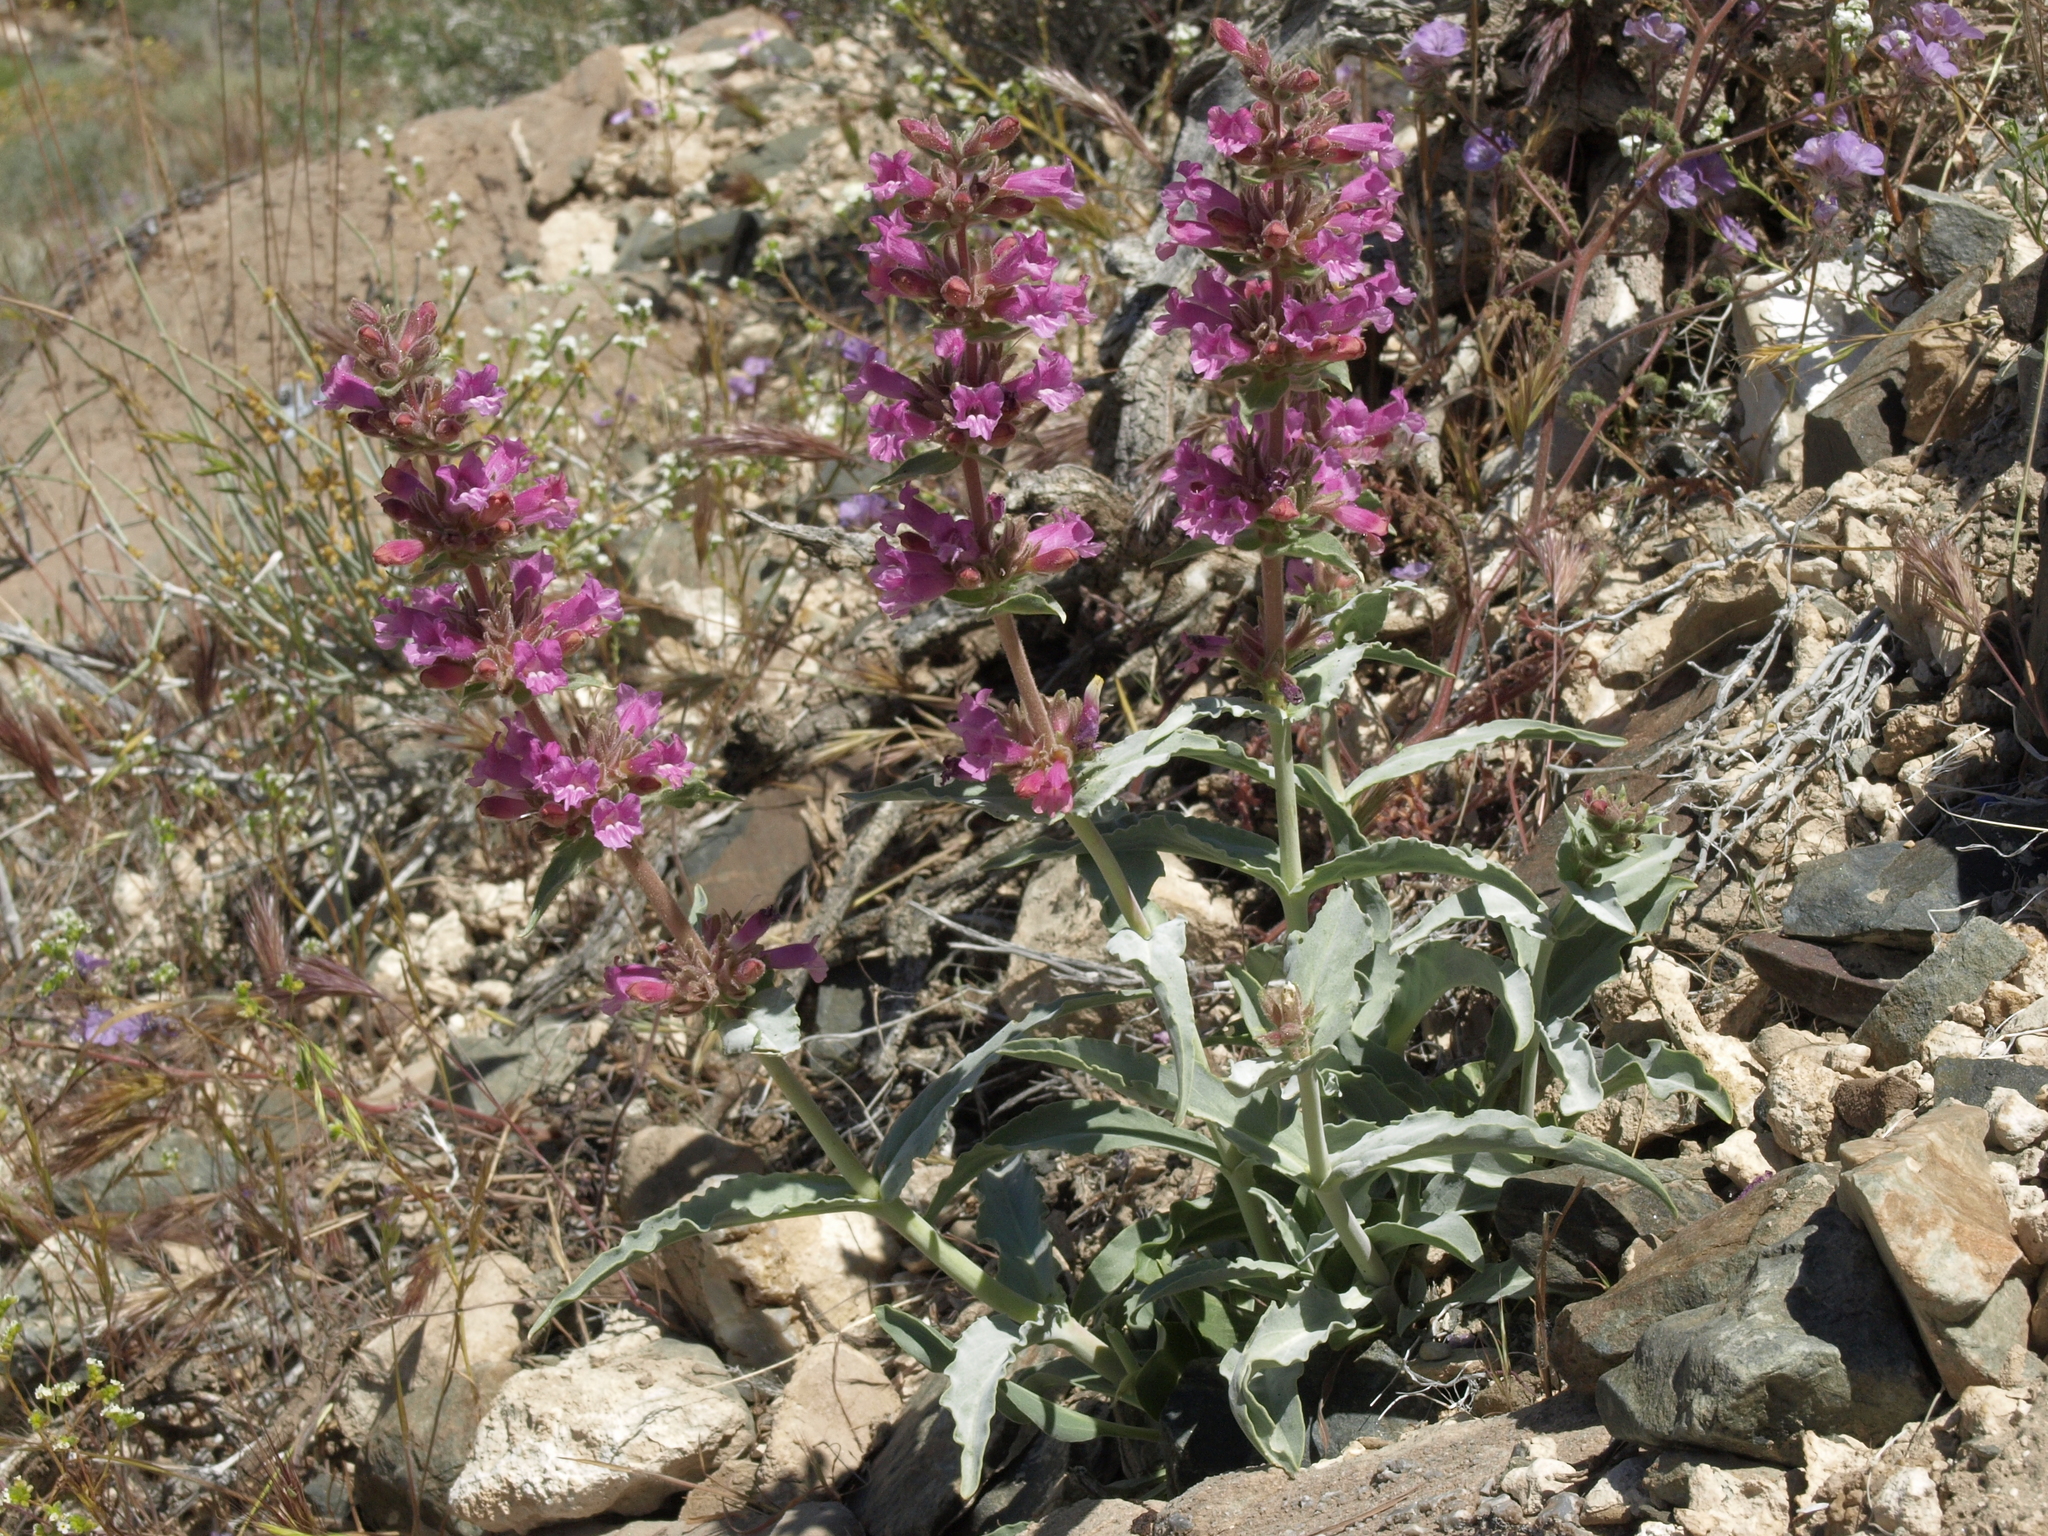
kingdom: Plantae
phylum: Tracheophyta
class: Magnoliopsida
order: Lamiales
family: Plantaginaceae
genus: Penstemon
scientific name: Penstemon monoensis
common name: Mono penstemon
